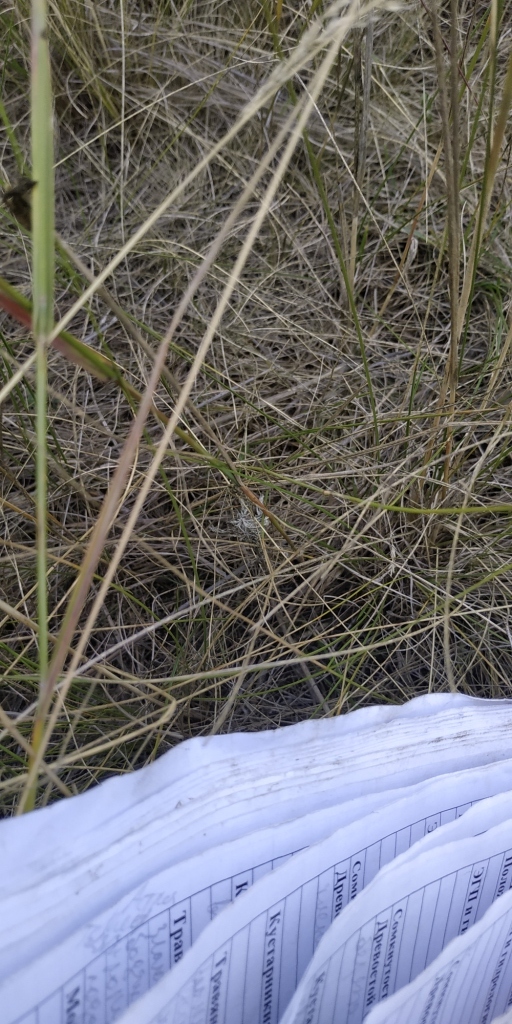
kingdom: Plantae
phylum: Tracheophyta
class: Magnoliopsida
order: Caryophyllales
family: Caryophyllaceae
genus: Dianthus
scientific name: Dianthus borbasii
